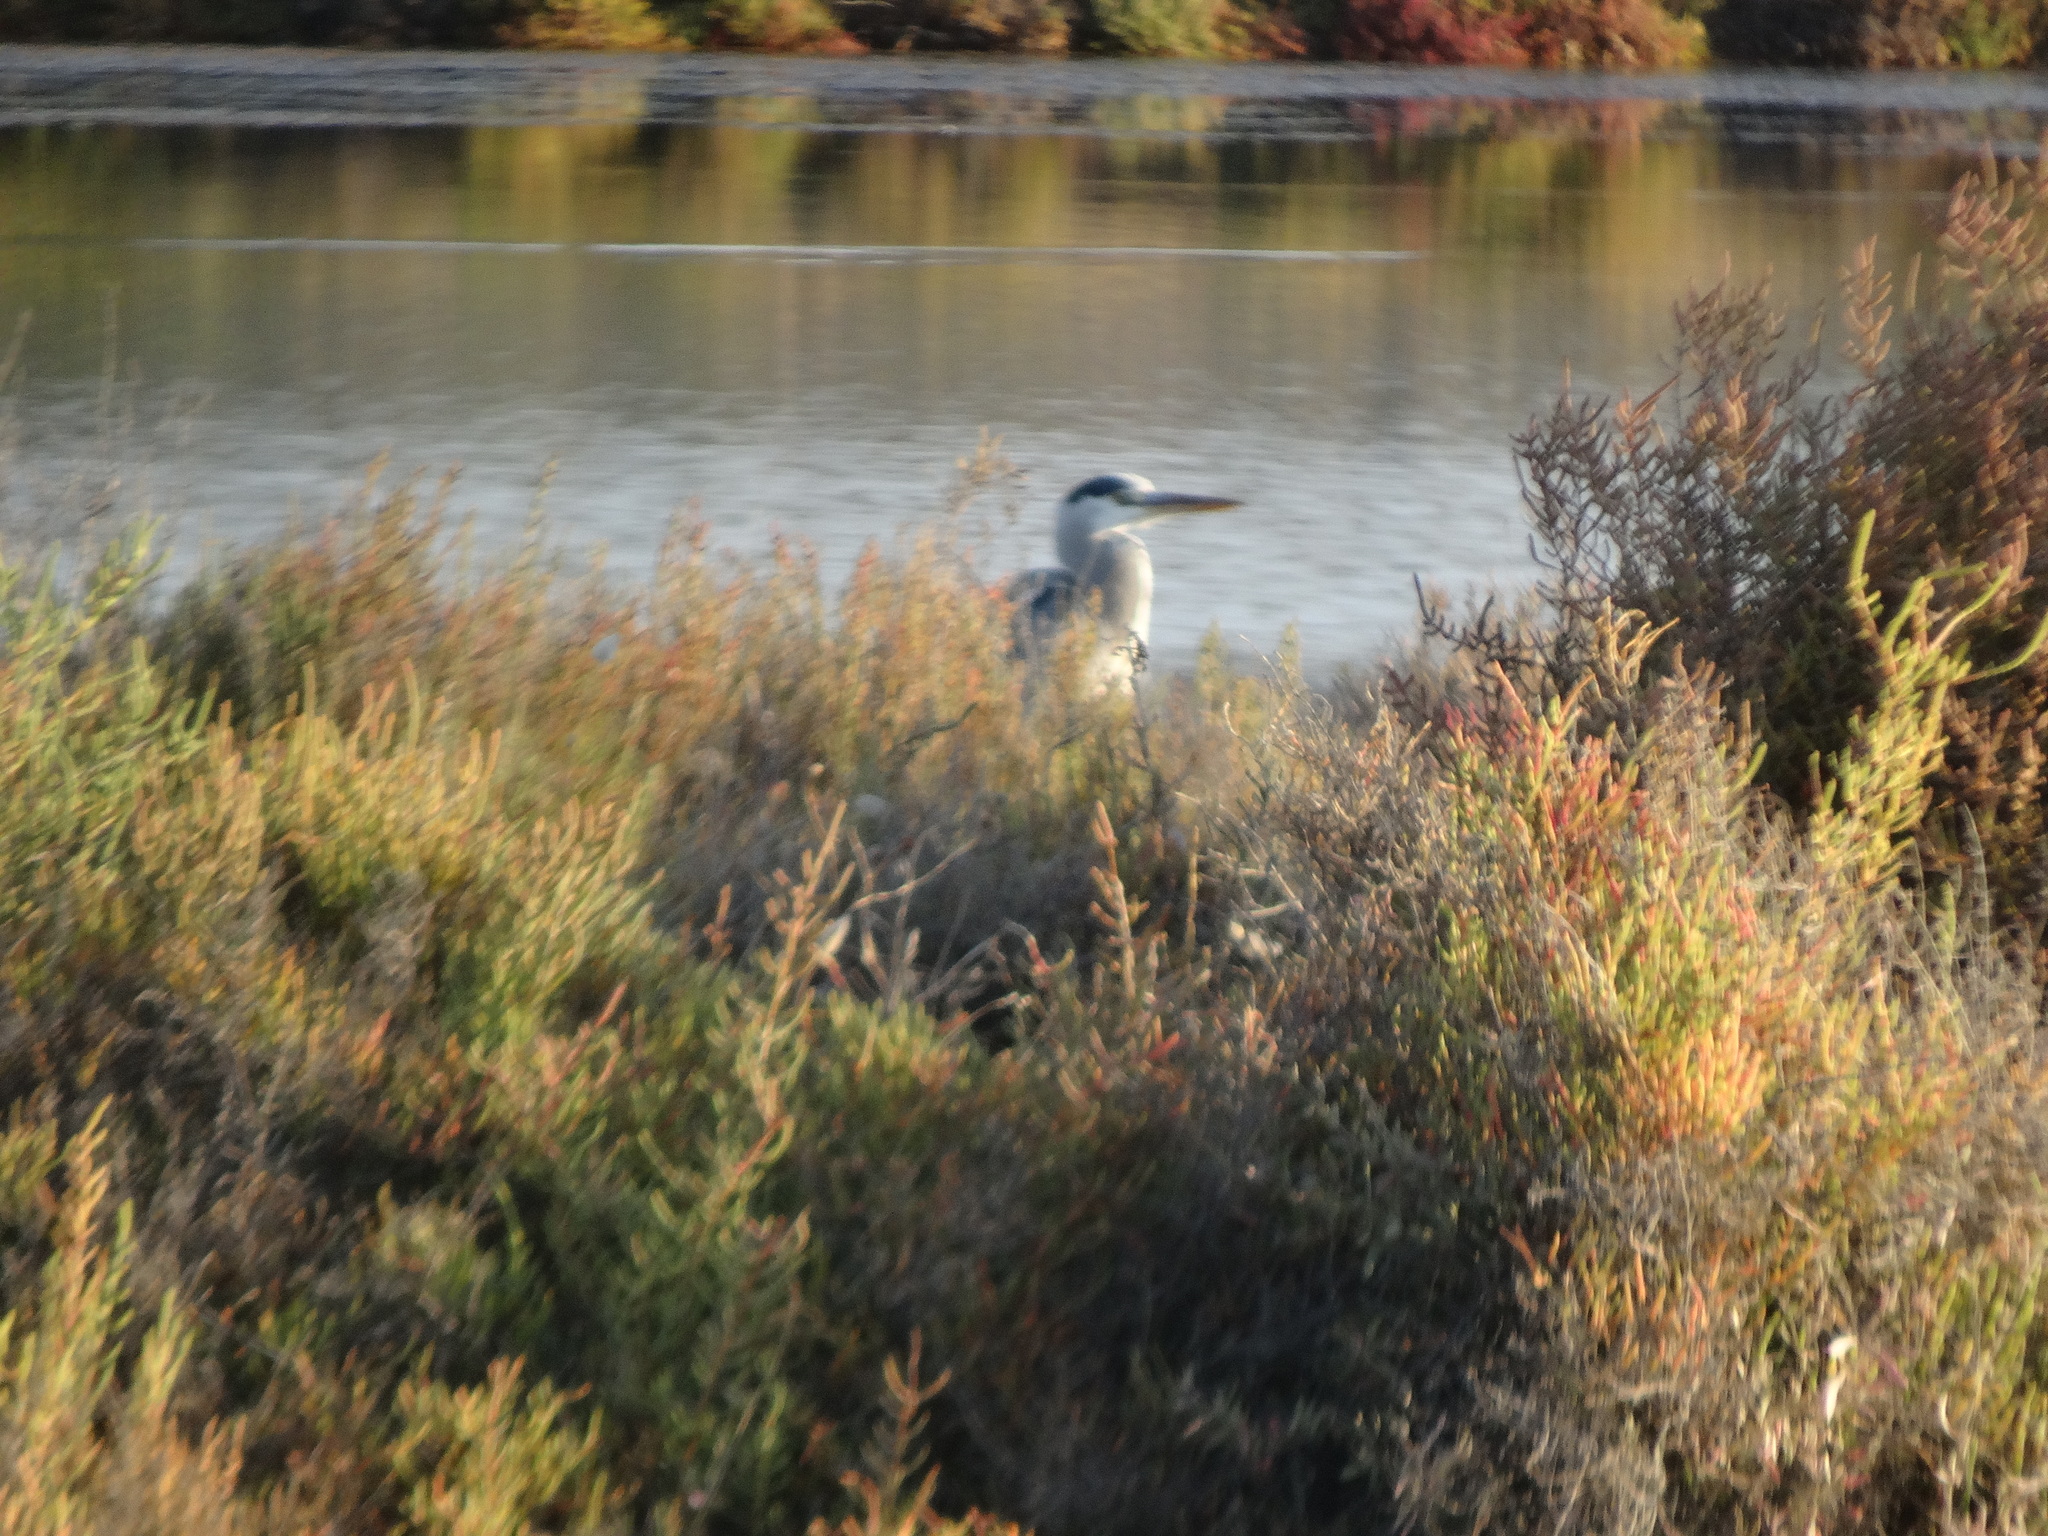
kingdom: Animalia
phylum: Chordata
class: Aves
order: Pelecaniformes
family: Ardeidae
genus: Ardea
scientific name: Ardea cinerea
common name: Grey heron
